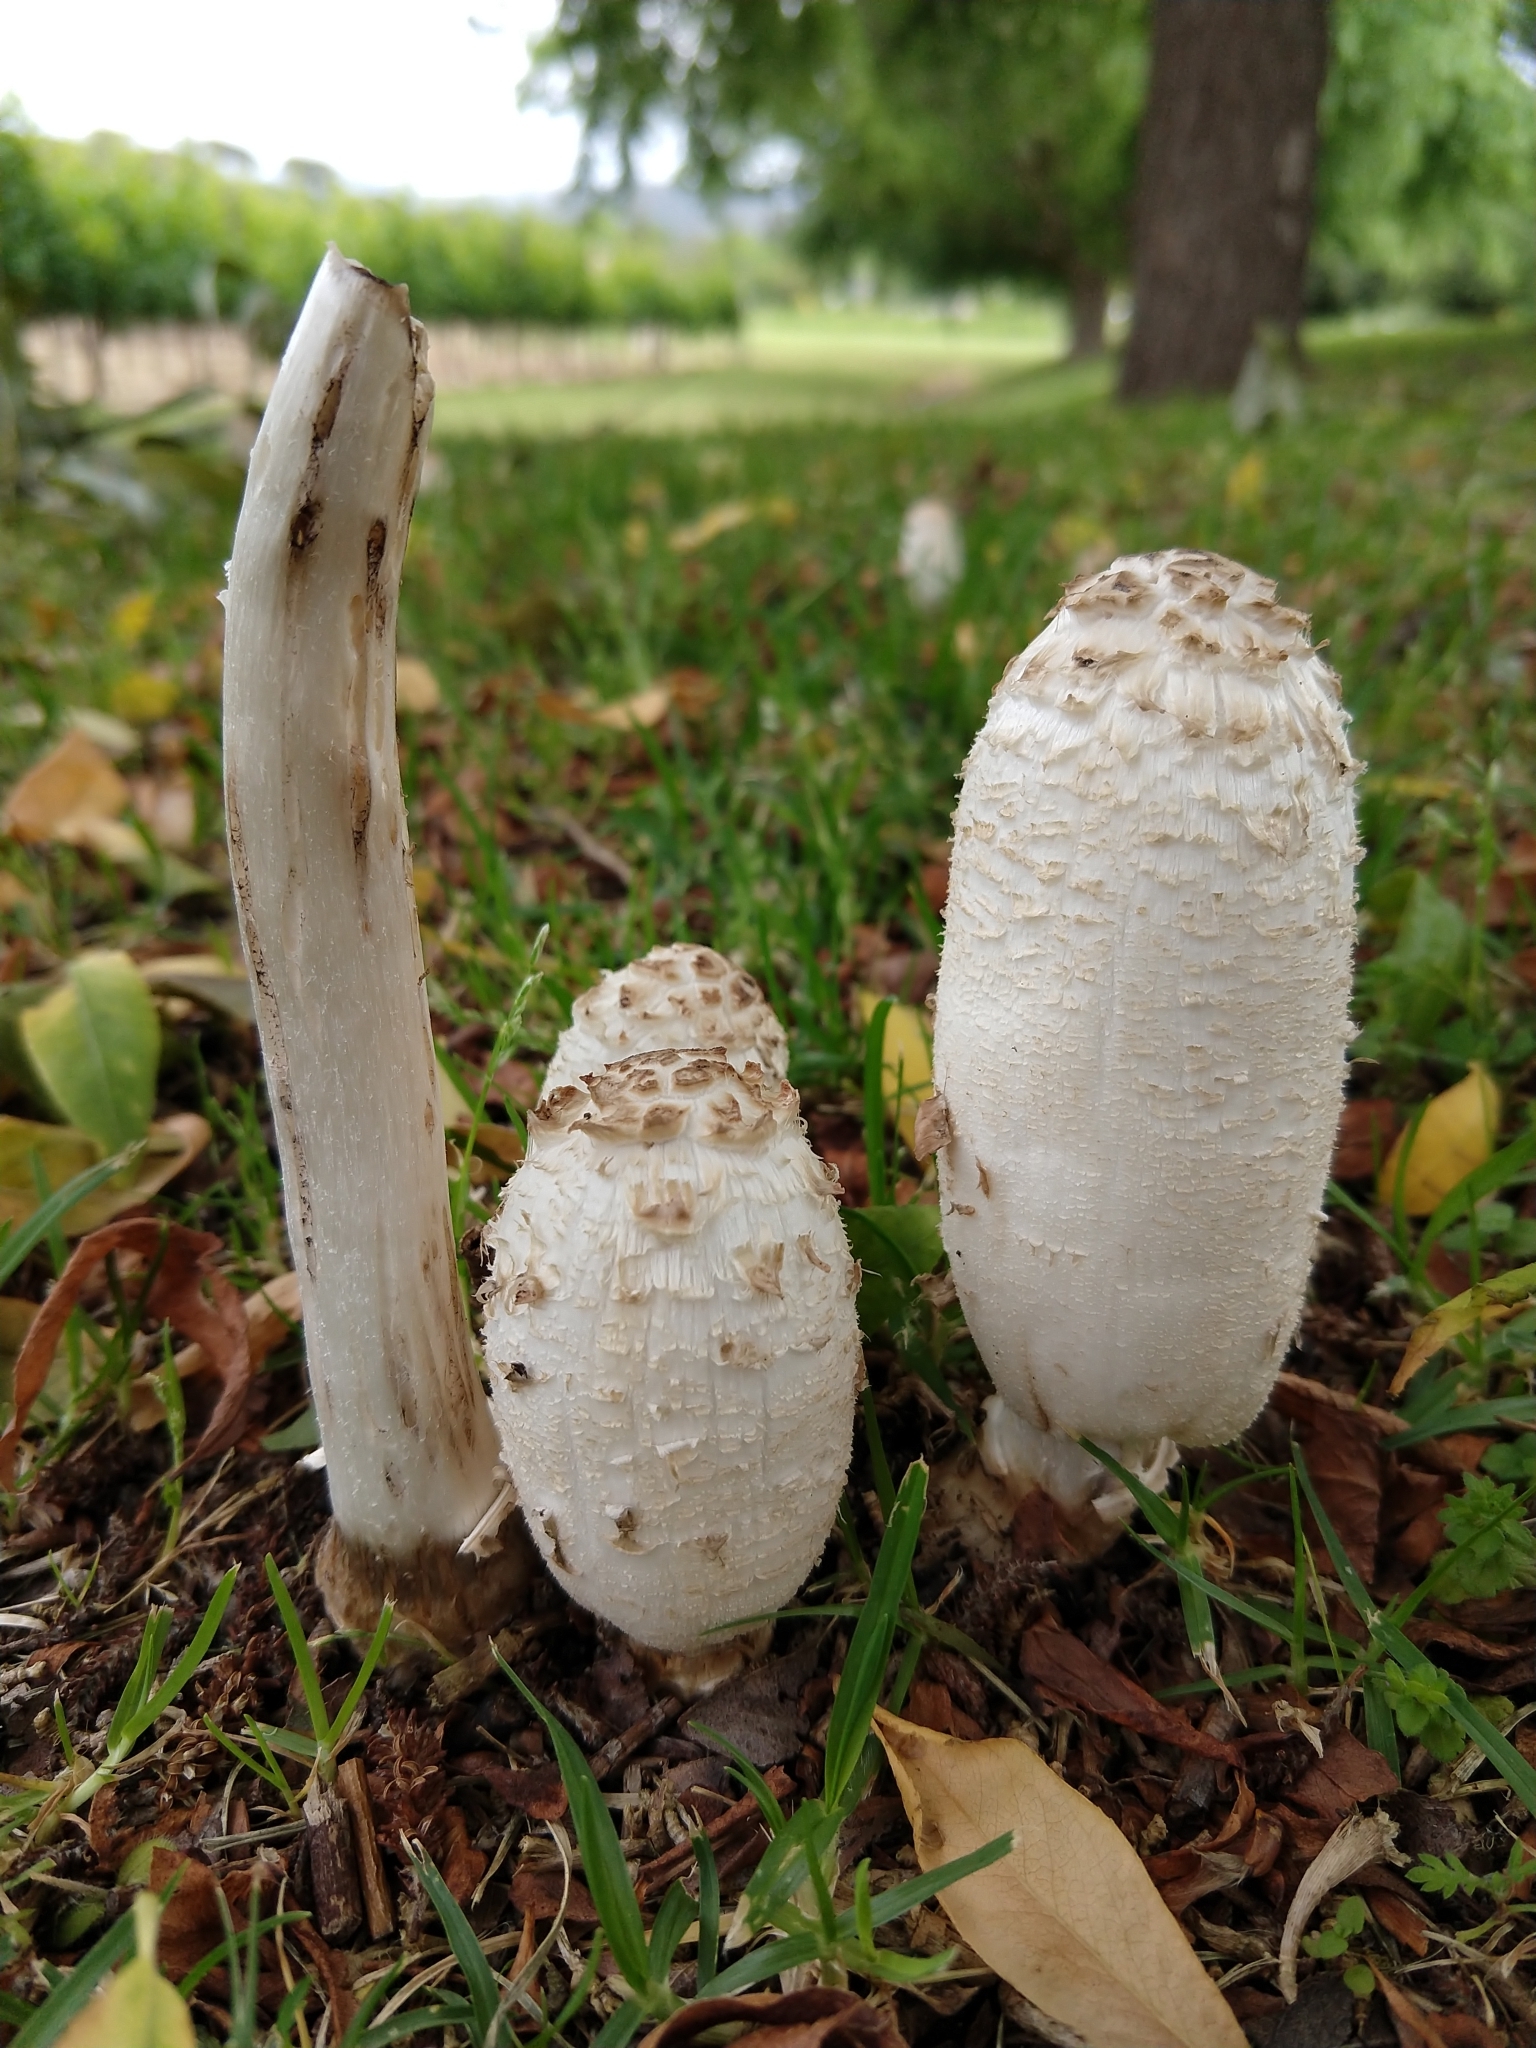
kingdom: Fungi
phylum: Basidiomycota
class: Agaricomycetes
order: Agaricales
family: Agaricaceae
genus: Coprinus
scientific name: Coprinus comatus
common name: Lawyer's wig
